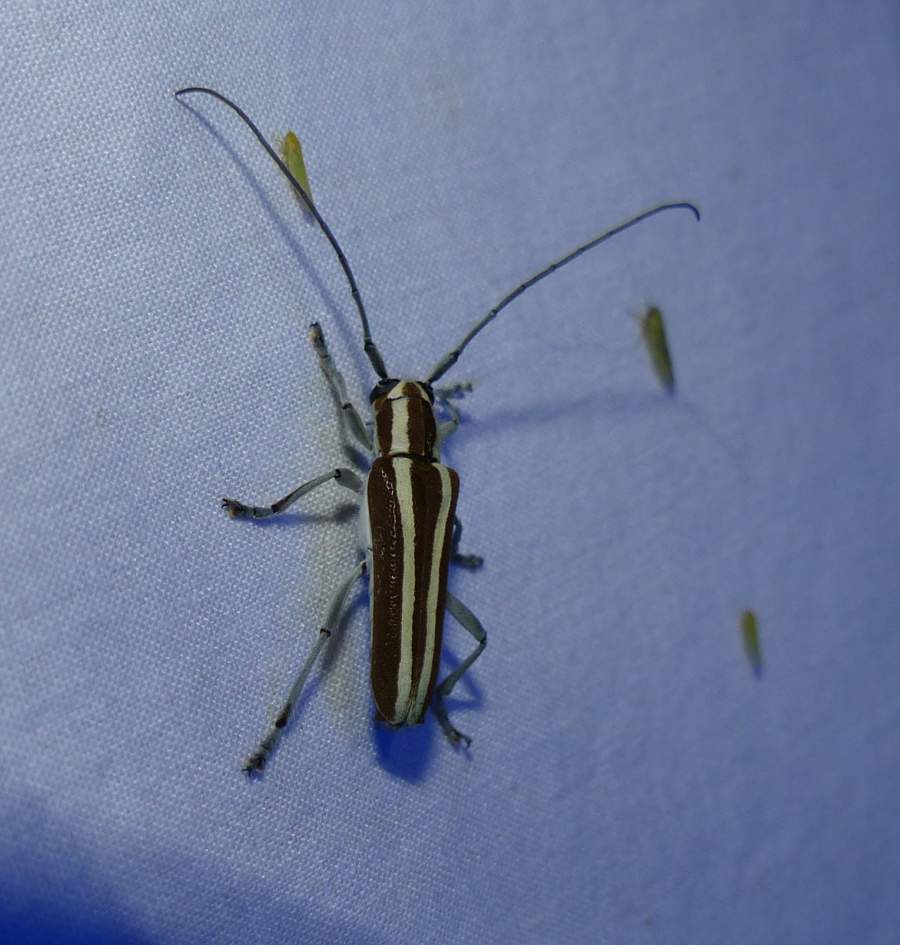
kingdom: Animalia
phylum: Arthropoda
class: Insecta
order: Coleoptera
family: Cerambycidae
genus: Saperda
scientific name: Saperda candida
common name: Round-headed borer
